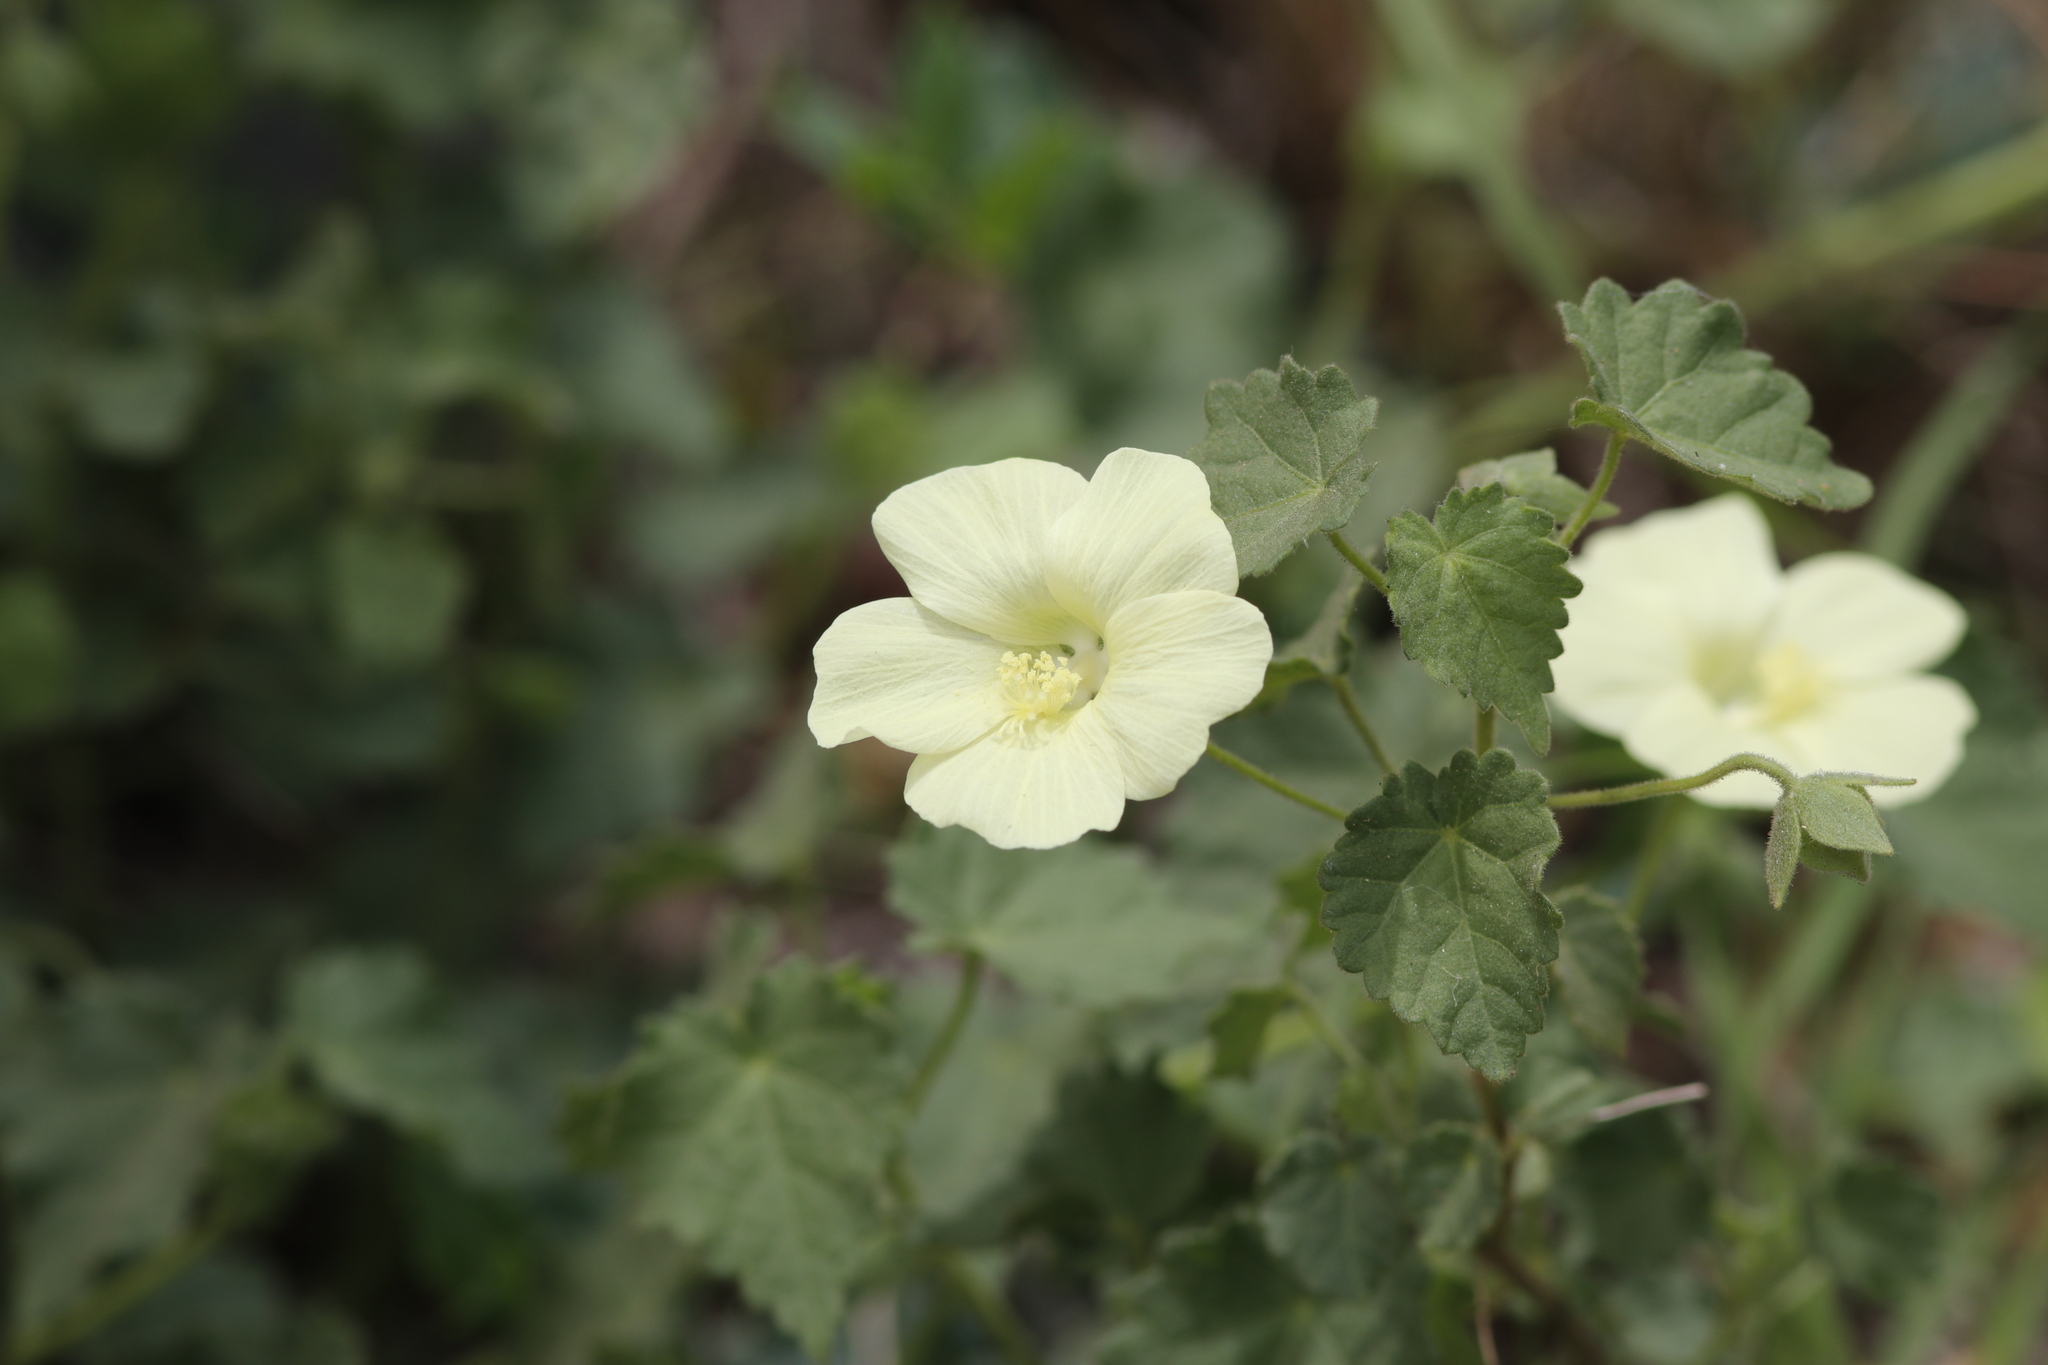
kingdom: Plantae
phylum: Tracheophyta
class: Magnoliopsida
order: Malvales
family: Malvaceae
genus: Pavonia
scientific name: Pavonia burchellii
